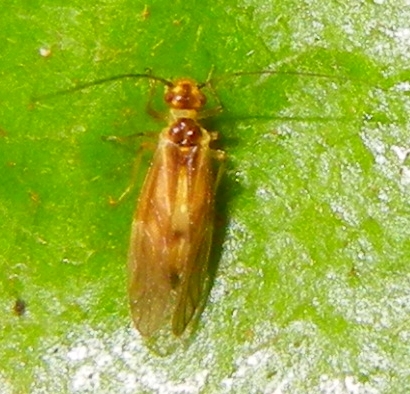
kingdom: Animalia
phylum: Arthropoda
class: Insecta
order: Psocodea
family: Caeciliusidae
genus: Valenzuela
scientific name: Valenzuela flavidus
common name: Yellow barklouse
